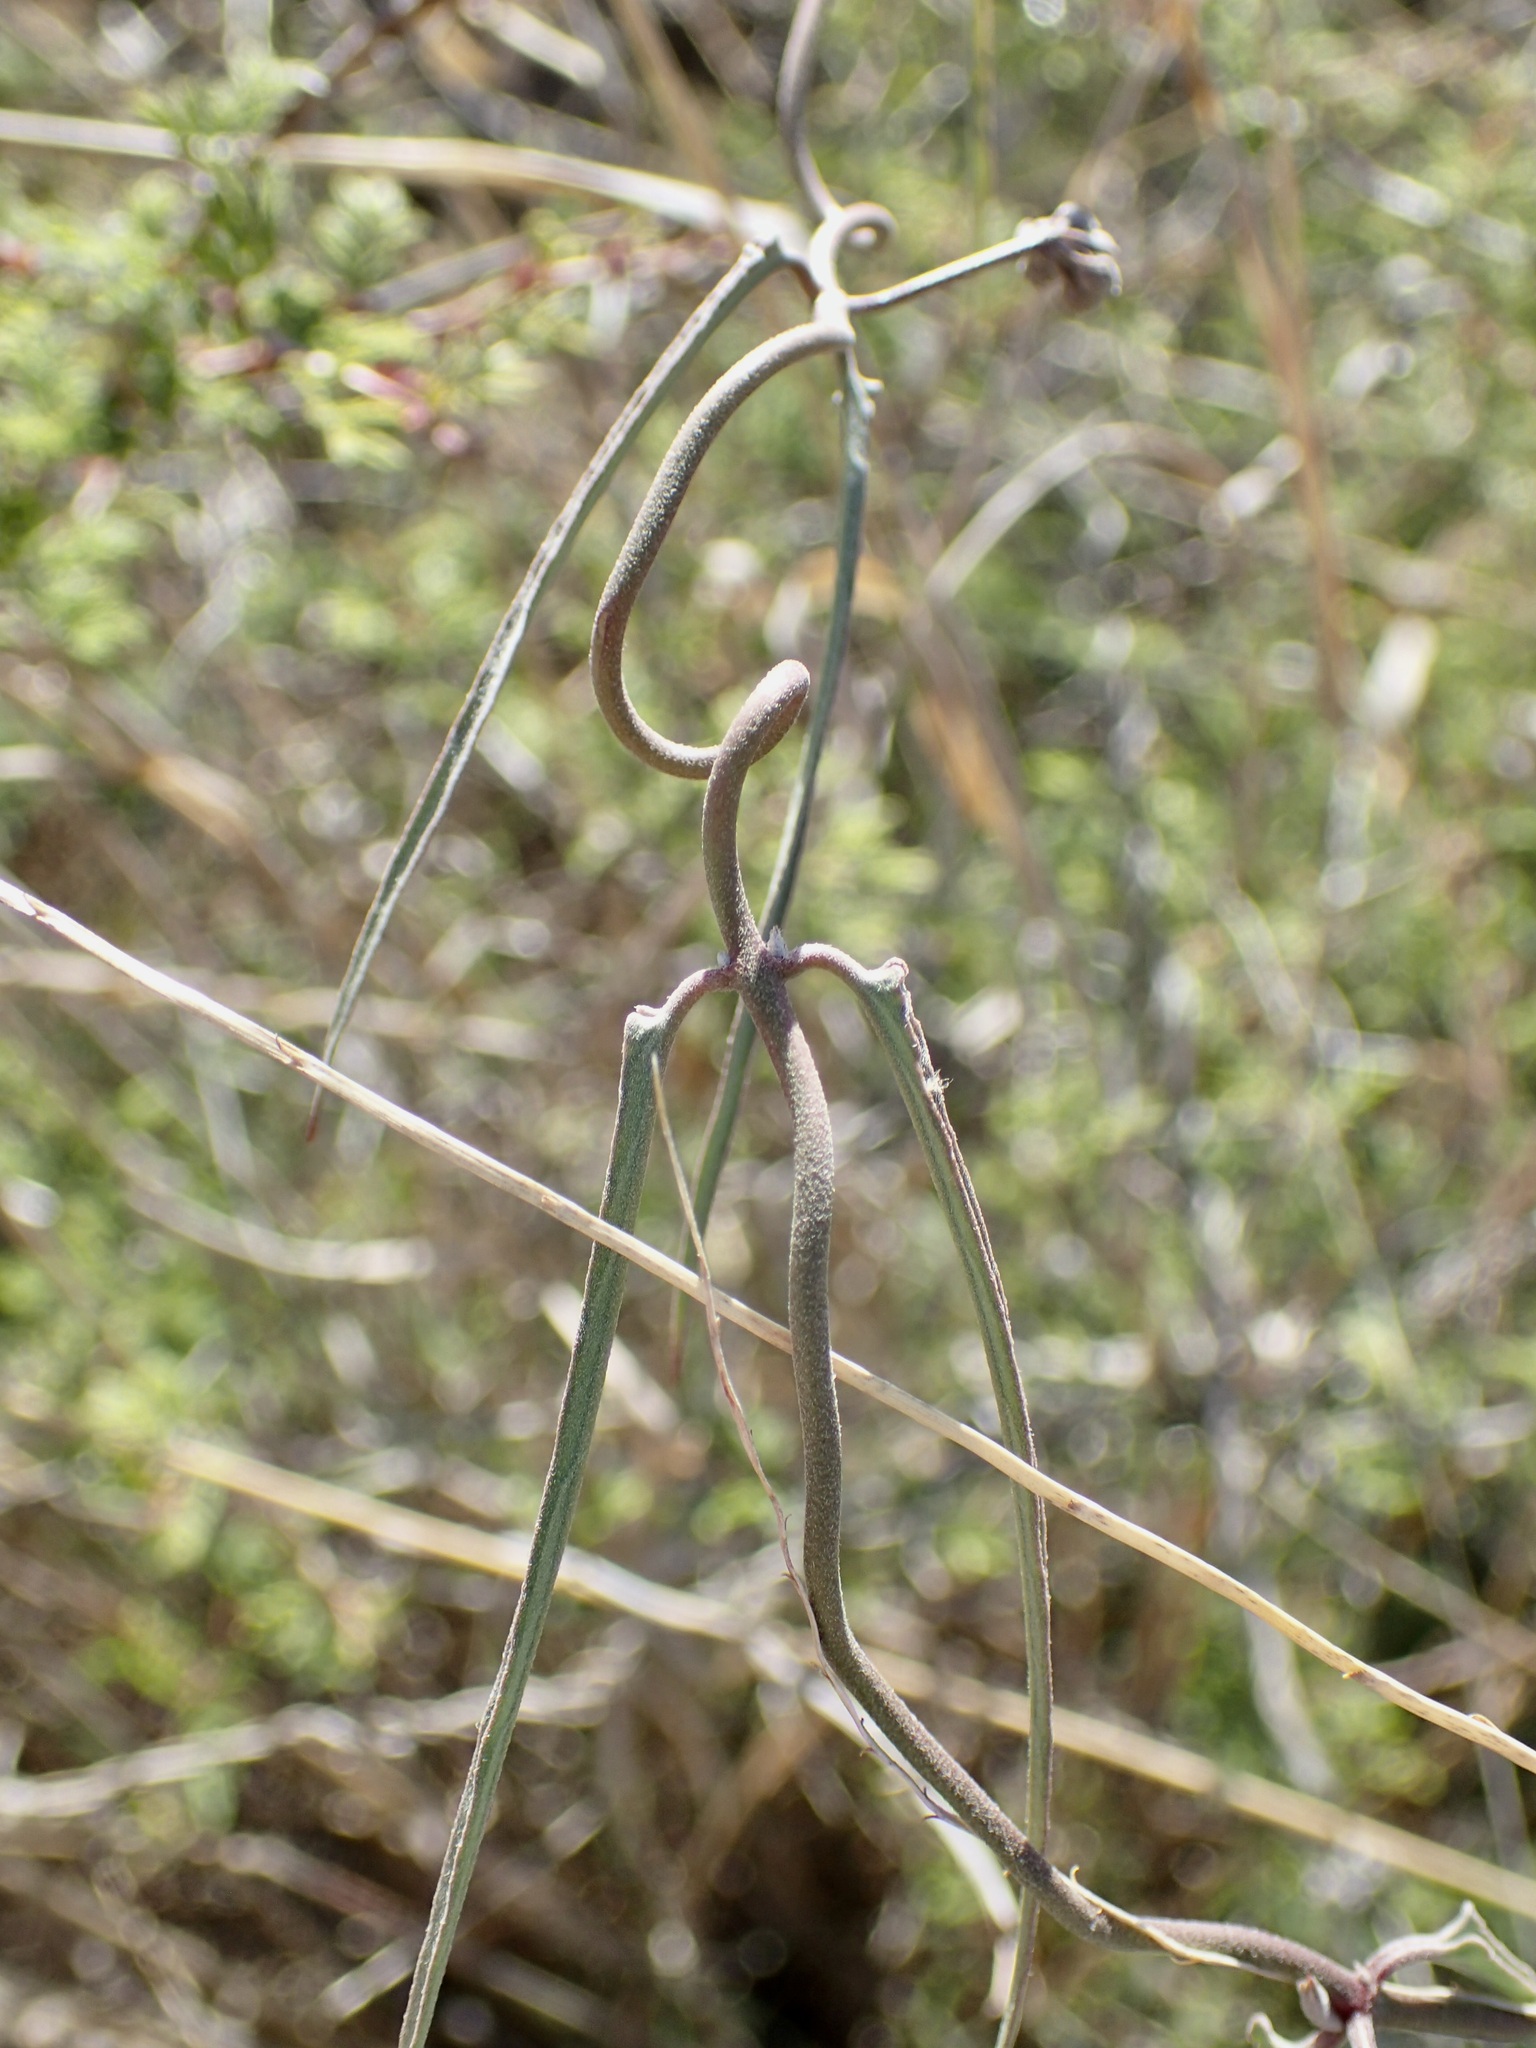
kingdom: Plantae
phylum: Tracheophyta
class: Magnoliopsida
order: Gentianales
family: Apocynaceae
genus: Funastrum
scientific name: Funastrum crispum
